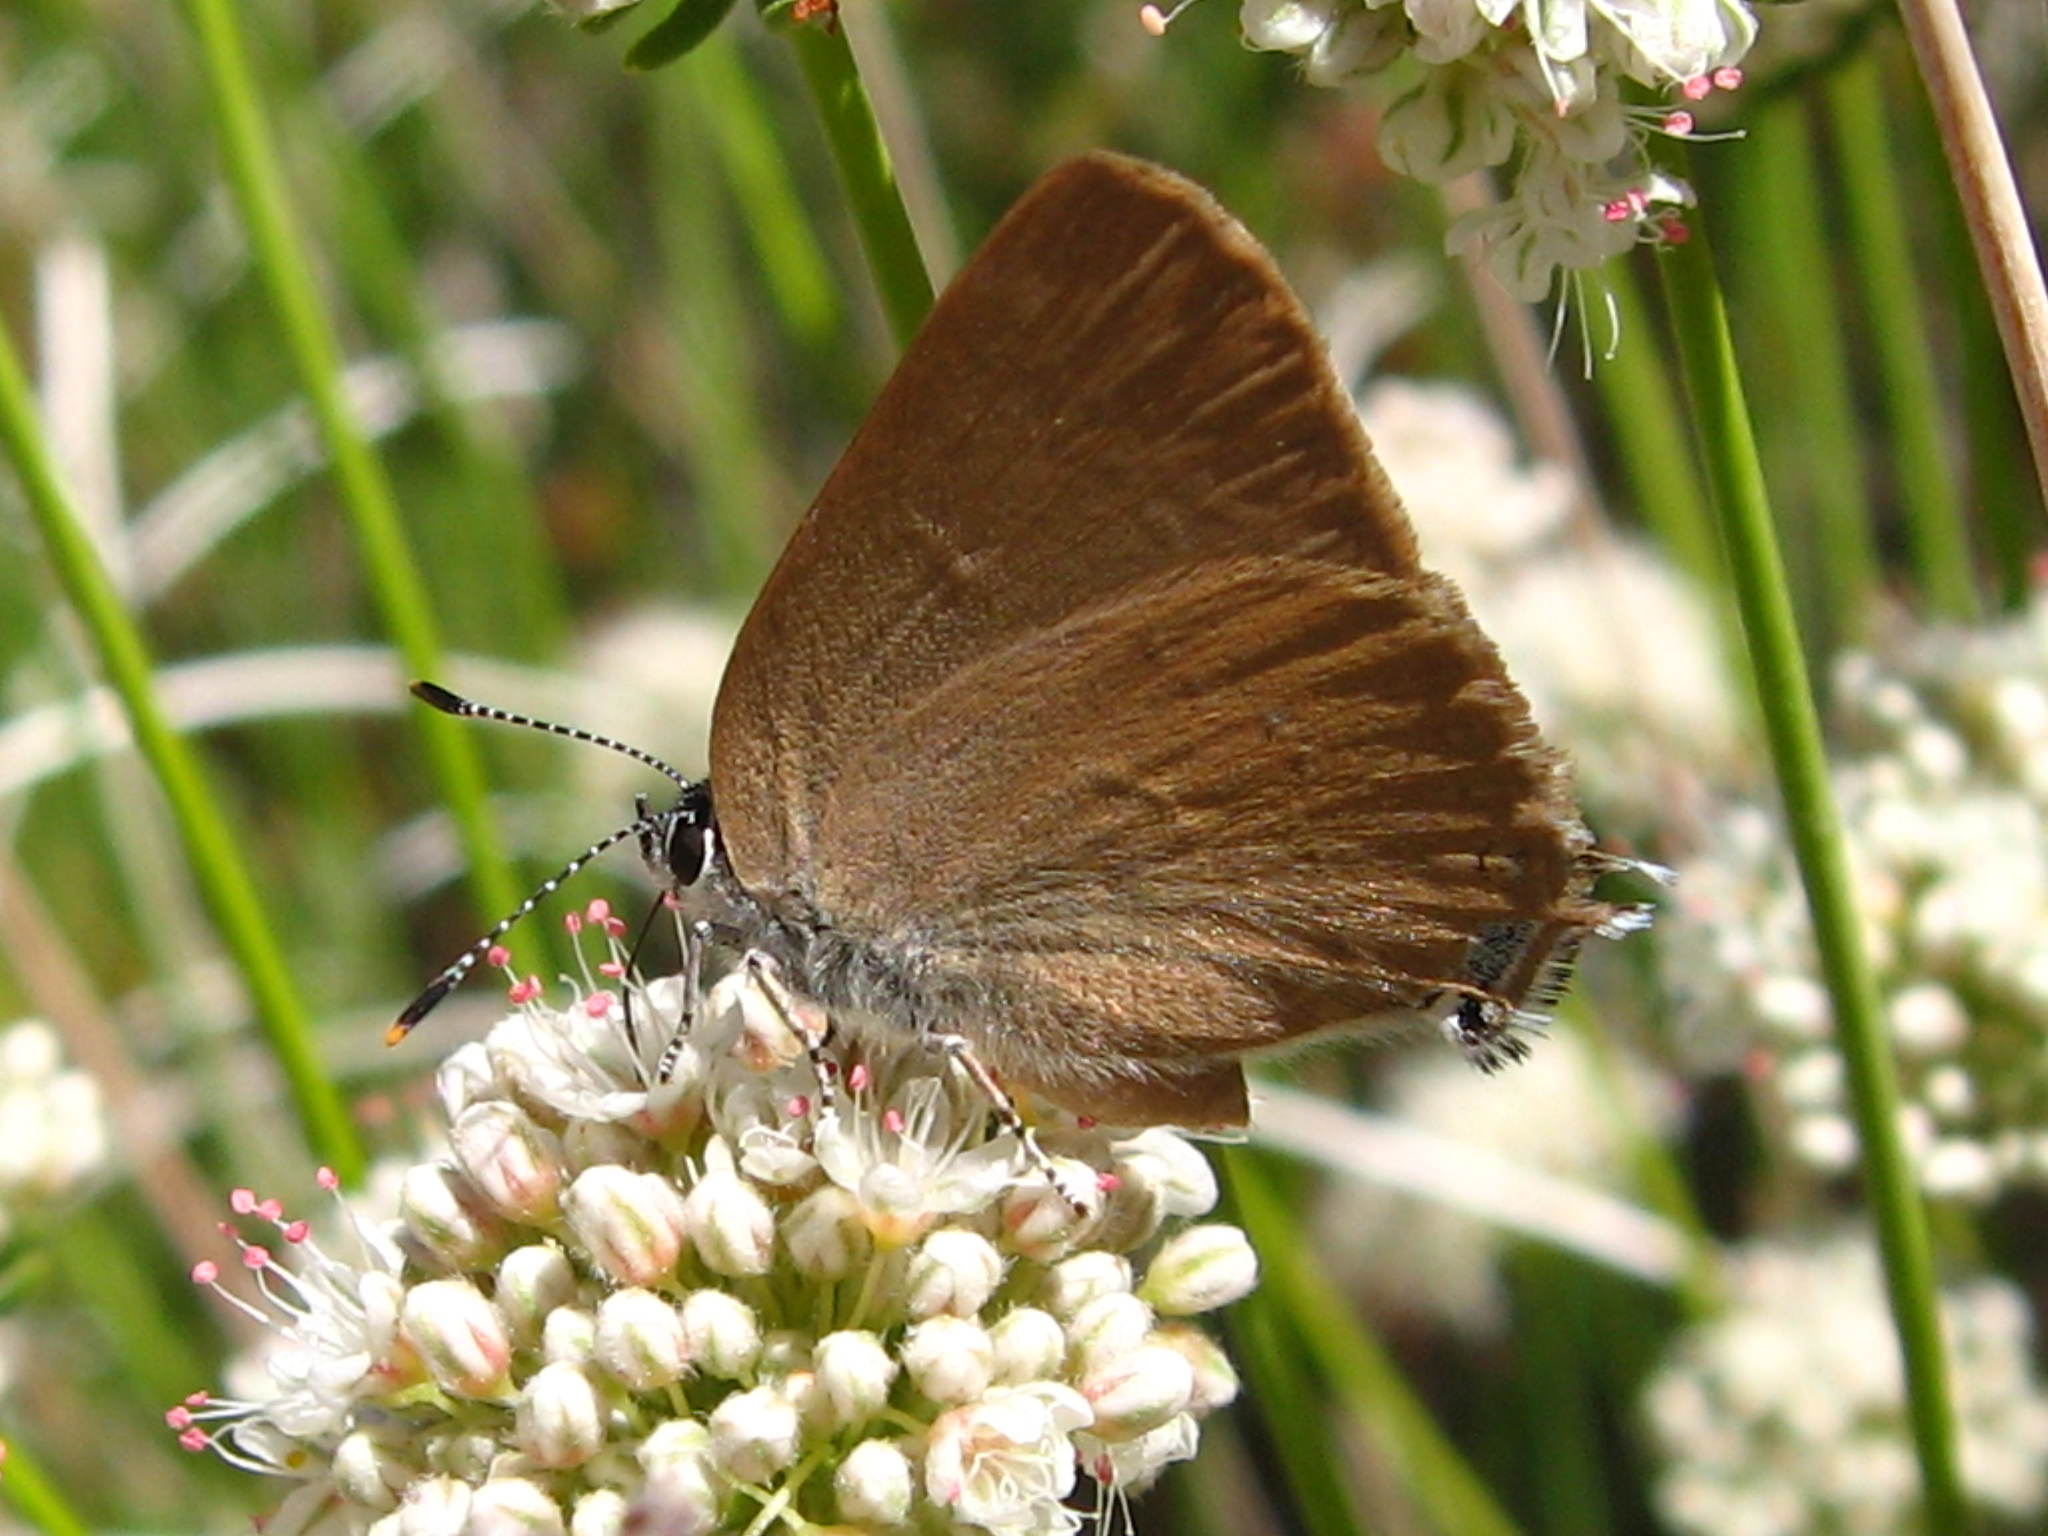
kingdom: Animalia
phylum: Arthropoda
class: Insecta
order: Lepidoptera
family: Lycaenidae
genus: Satyrium
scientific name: Satyrium calanus
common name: Banded hairstreak
